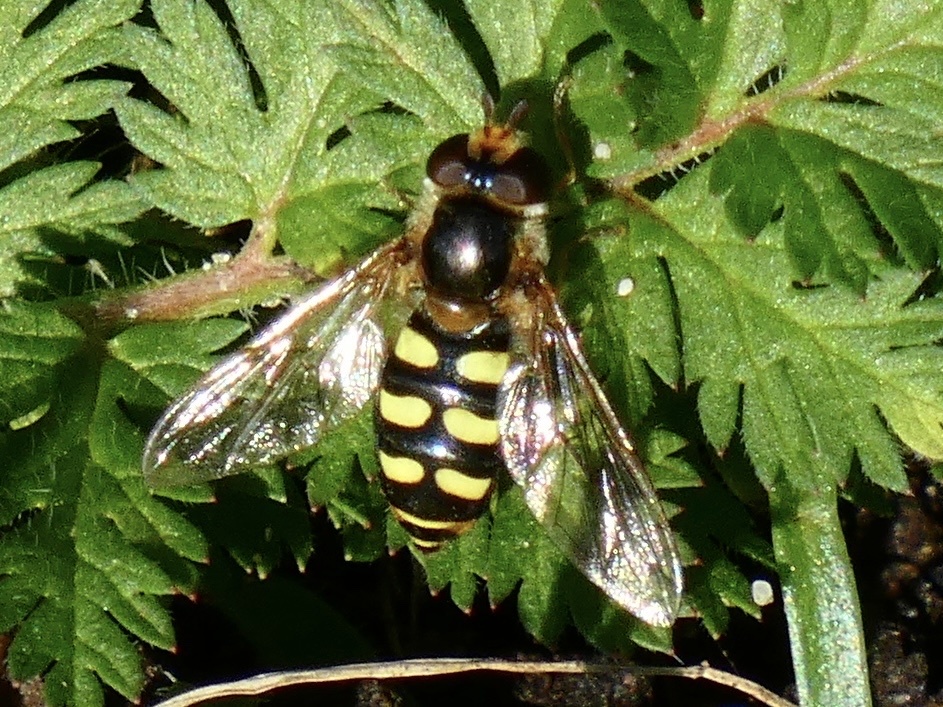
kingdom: Animalia
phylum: Arthropoda
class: Insecta
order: Diptera
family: Syrphidae
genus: Eupeodes
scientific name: Eupeodes luniger
